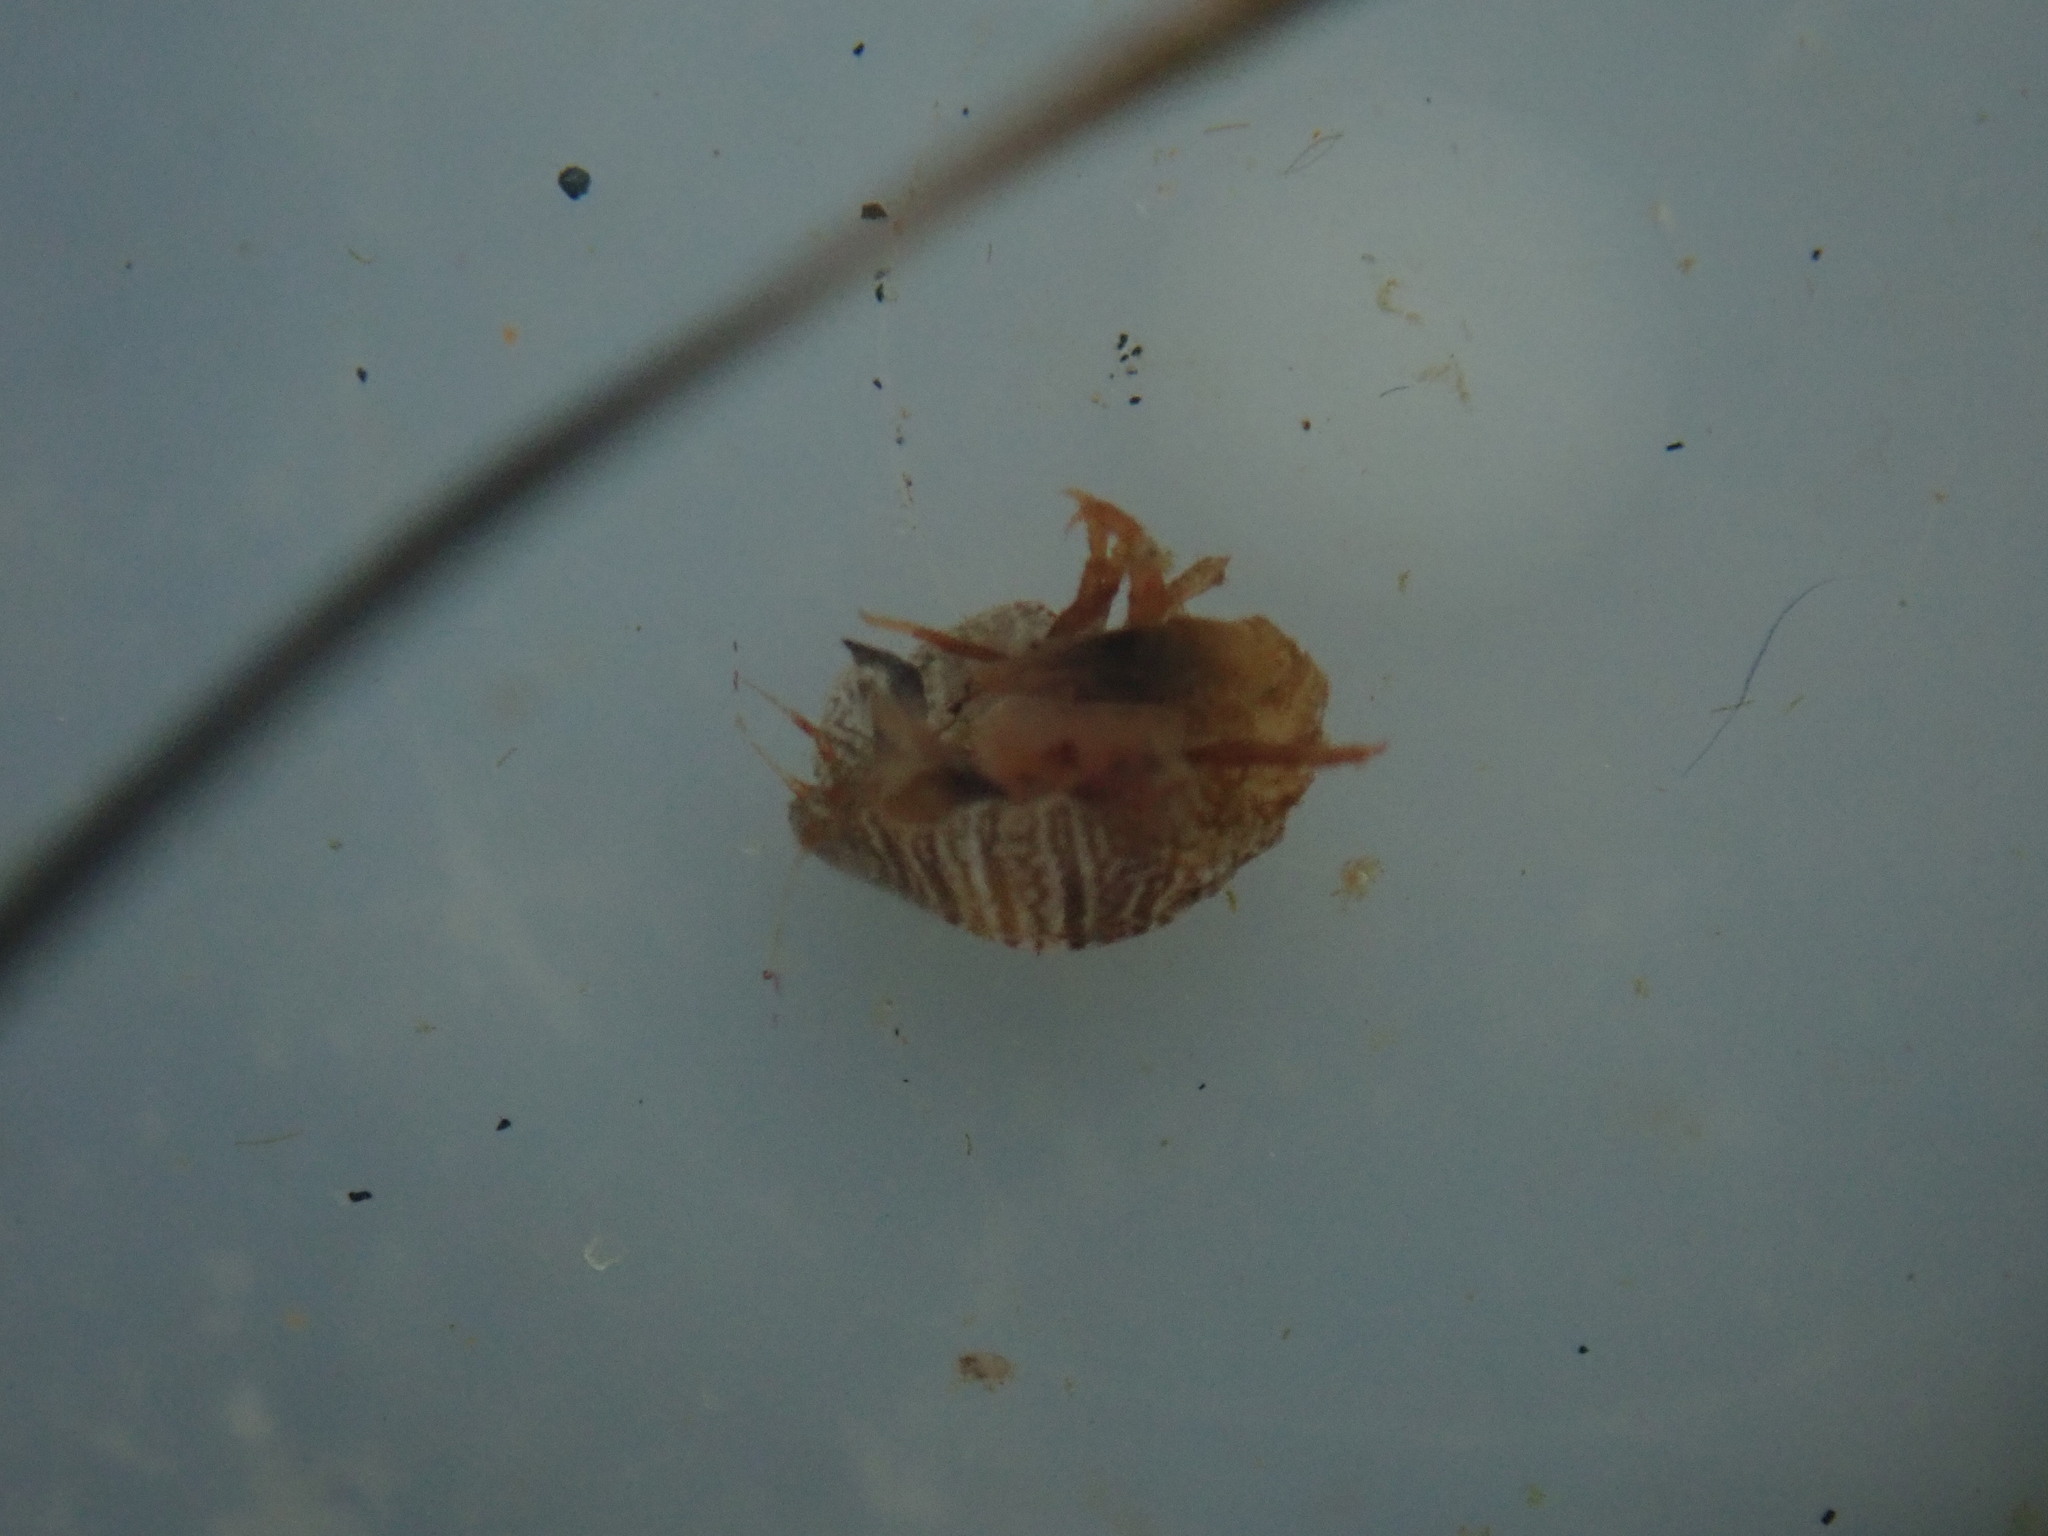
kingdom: Animalia
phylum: Arthropoda
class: Malacostraca
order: Amphipoda
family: Pleustidae
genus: Thorlaksonius
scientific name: Thorlaksonius brevirostris
